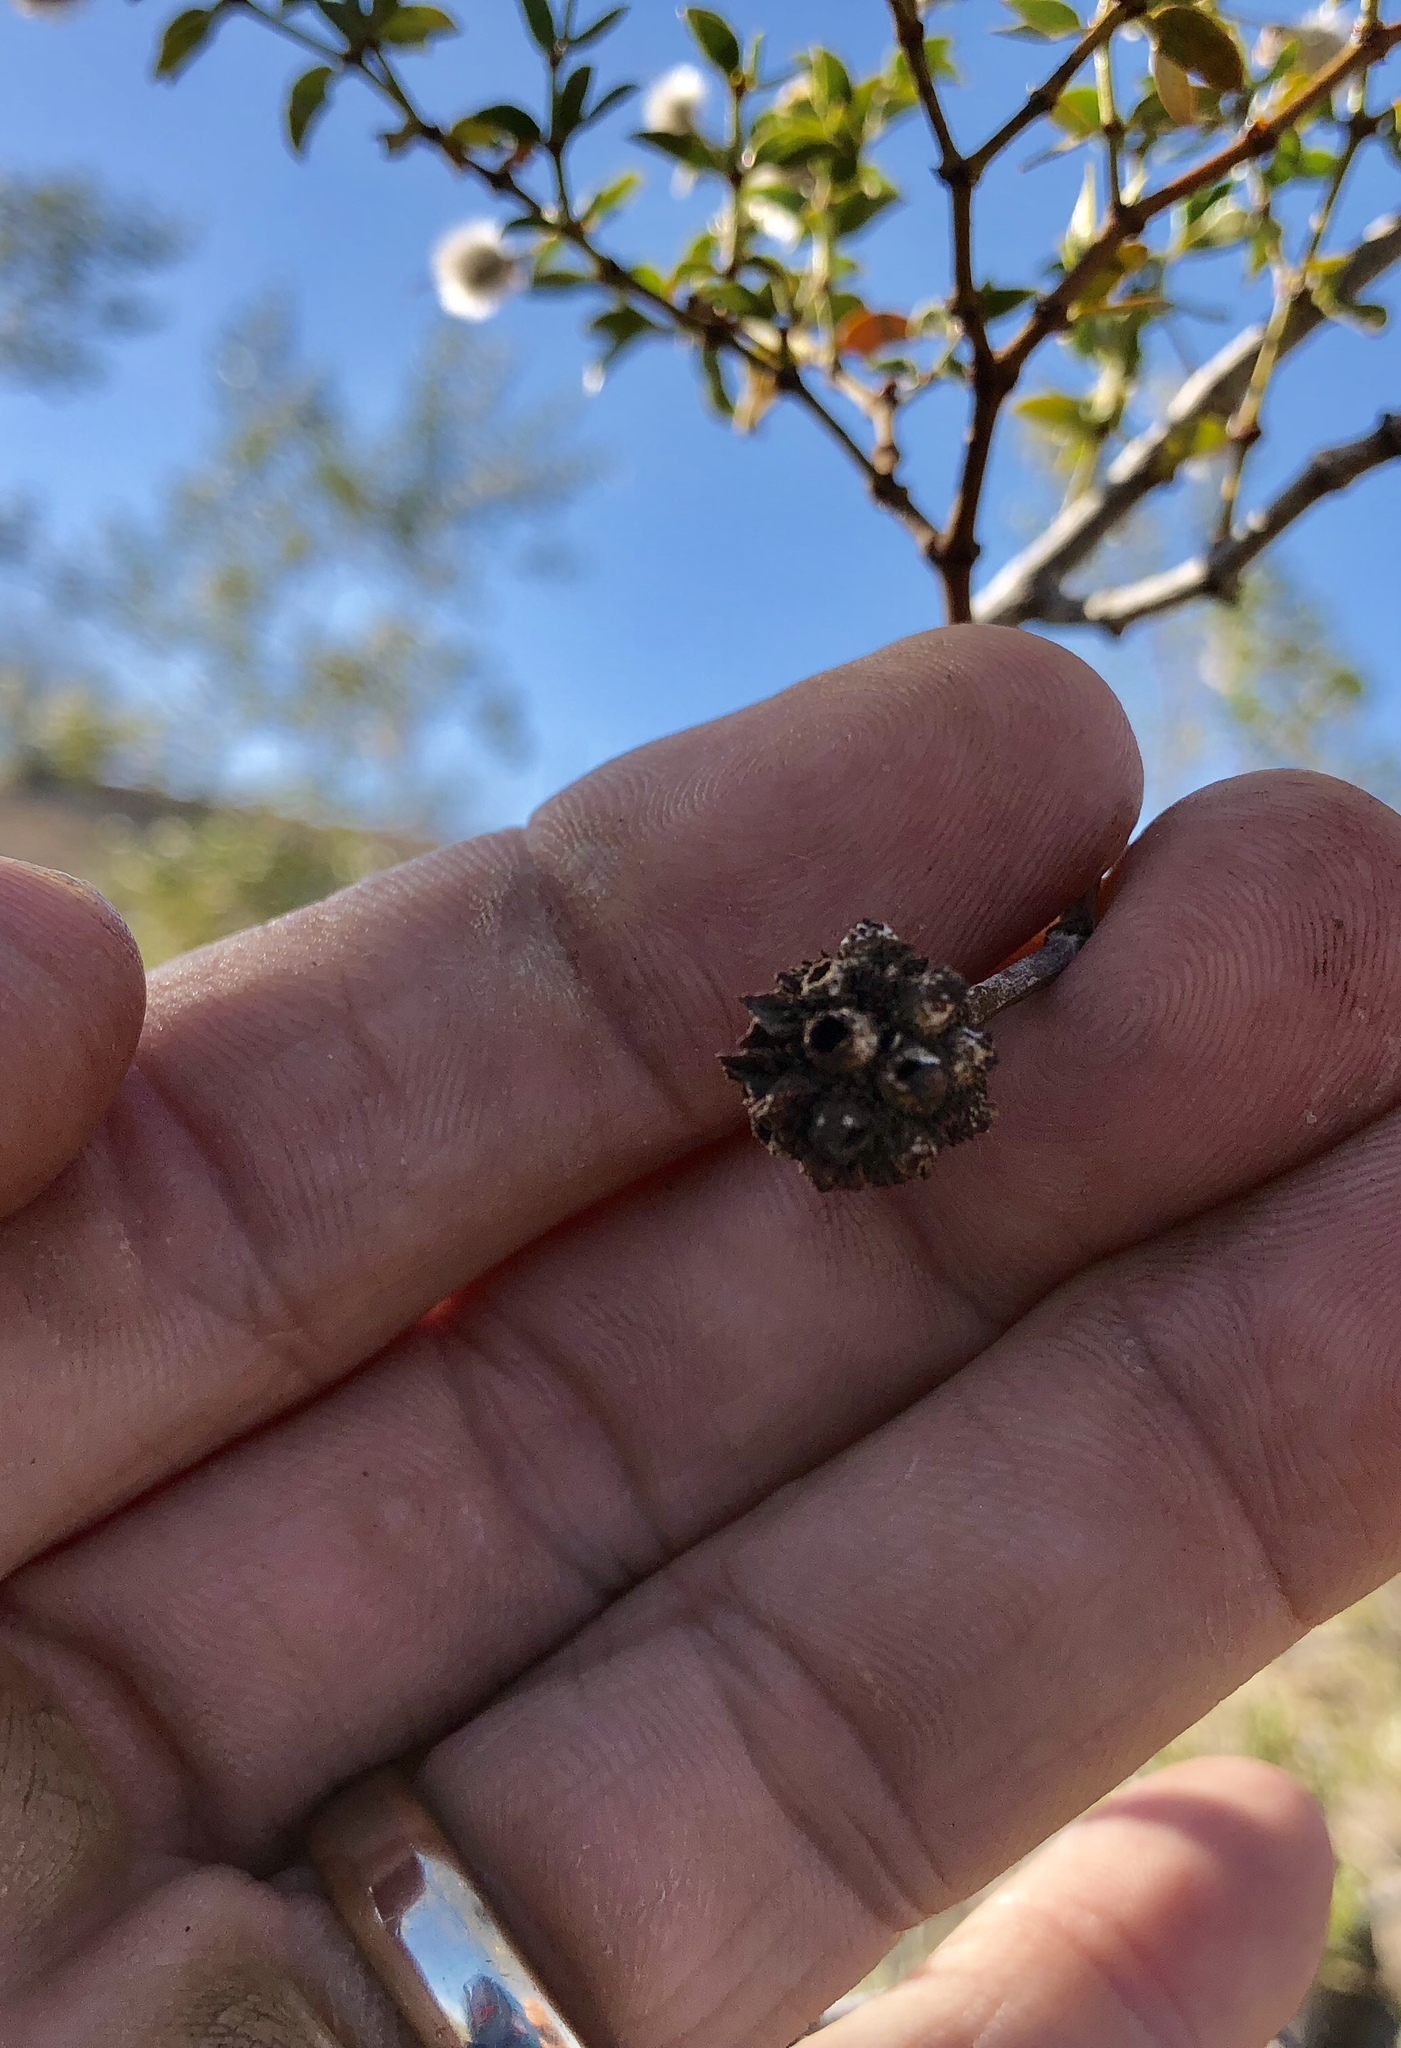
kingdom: Animalia
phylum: Arthropoda
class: Insecta
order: Diptera
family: Cecidomyiidae
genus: Asphondylia
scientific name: Asphondylia auripila
